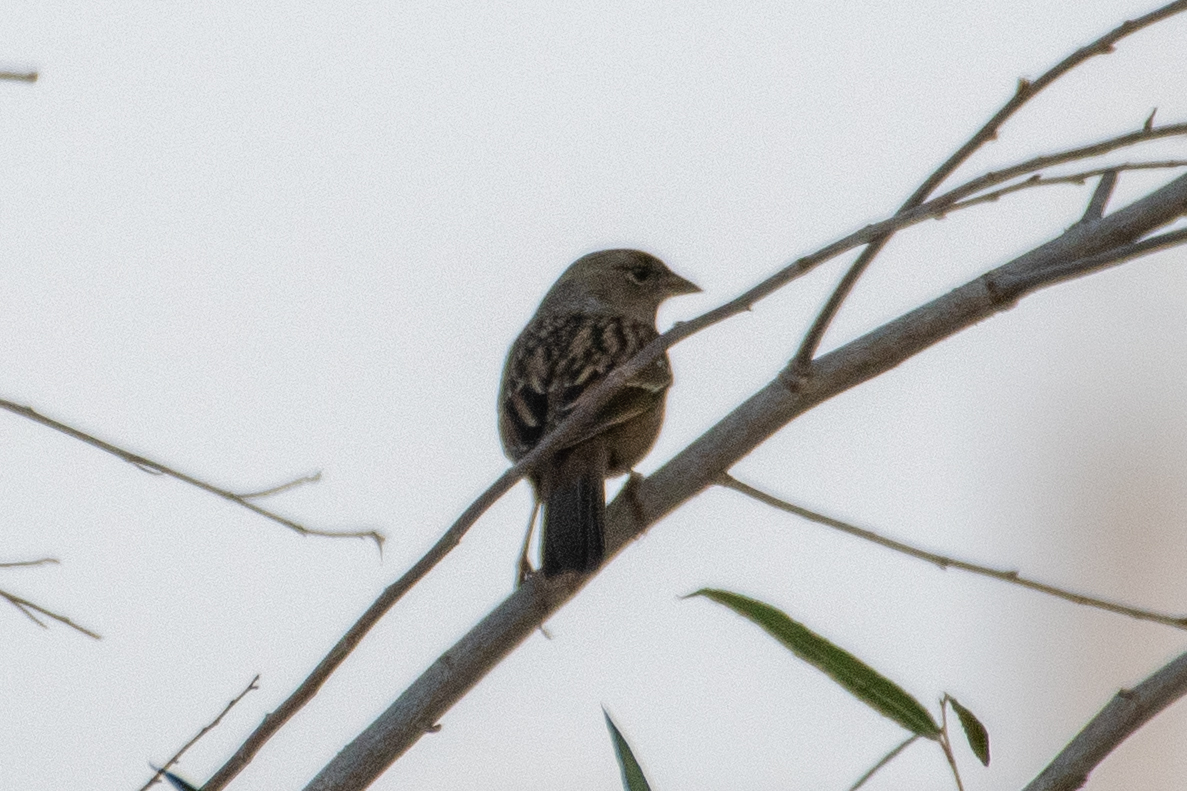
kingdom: Animalia
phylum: Chordata
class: Aves
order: Passeriformes
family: Passerellidae
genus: Zonotrichia
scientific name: Zonotrichia atricapilla
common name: Golden-crowned sparrow
